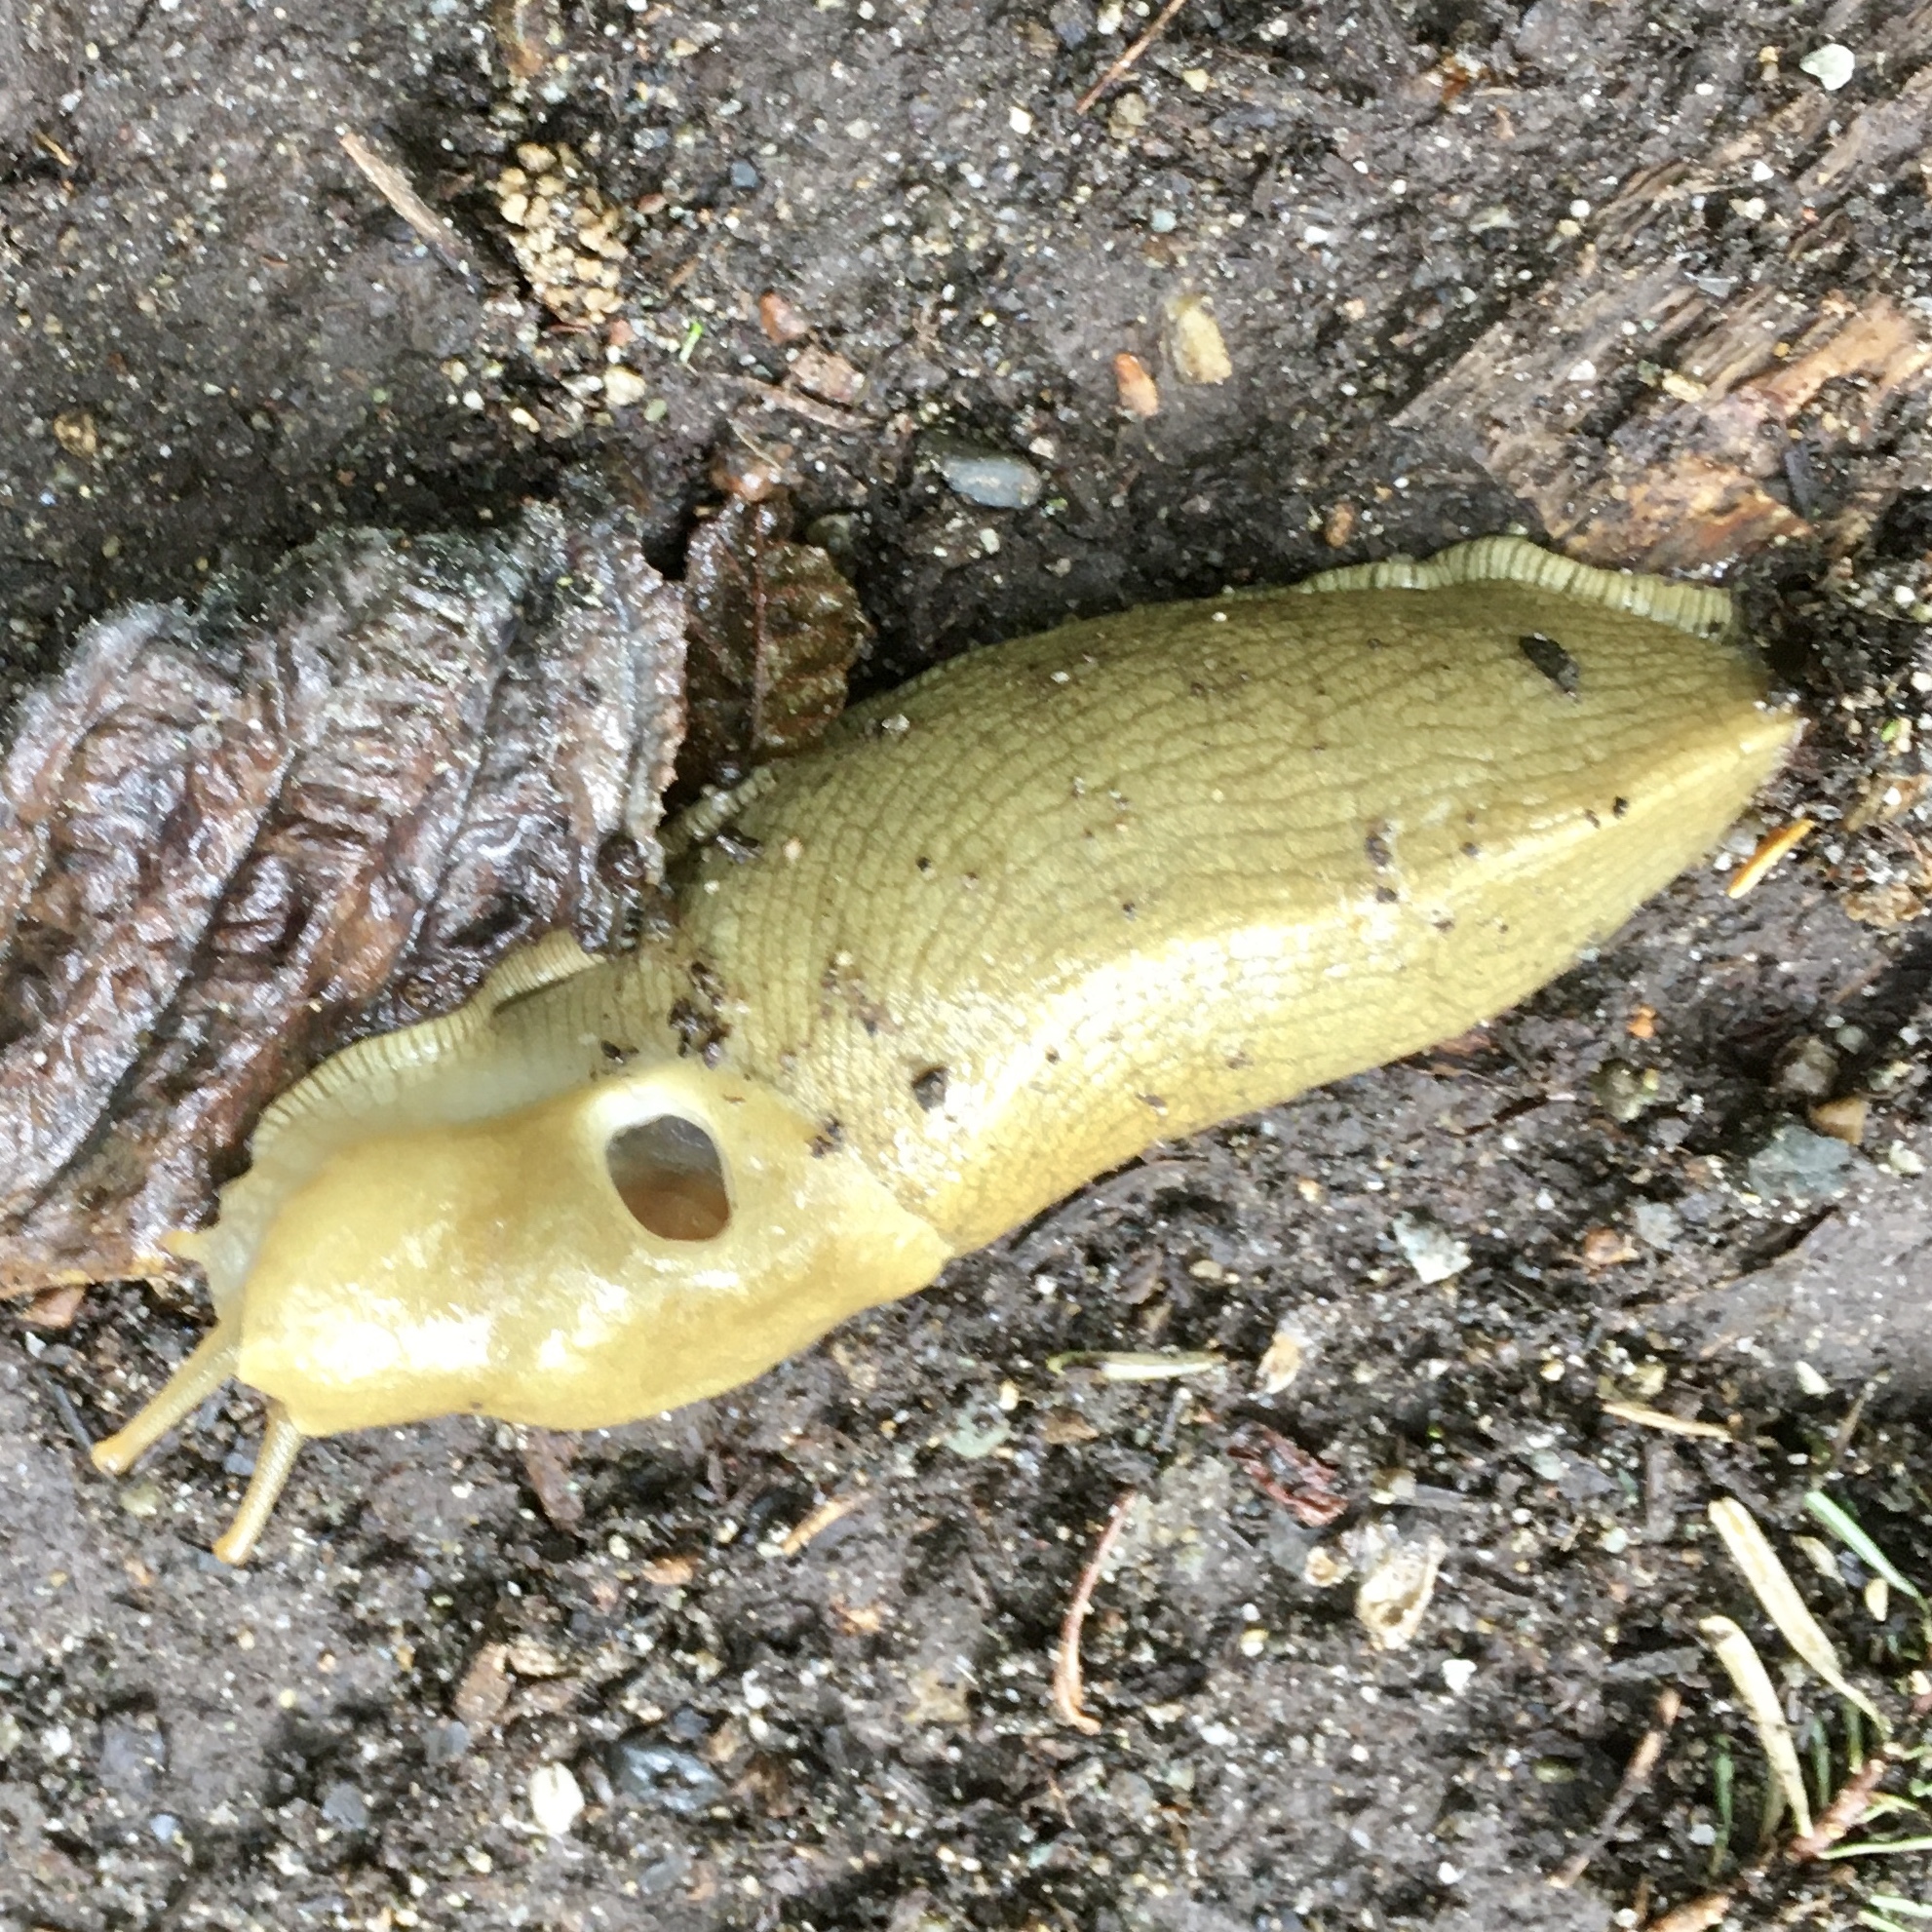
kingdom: Animalia
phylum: Mollusca
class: Gastropoda
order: Stylommatophora
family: Ariolimacidae
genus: Ariolimax
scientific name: Ariolimax columbianus
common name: Pacific banana slug
